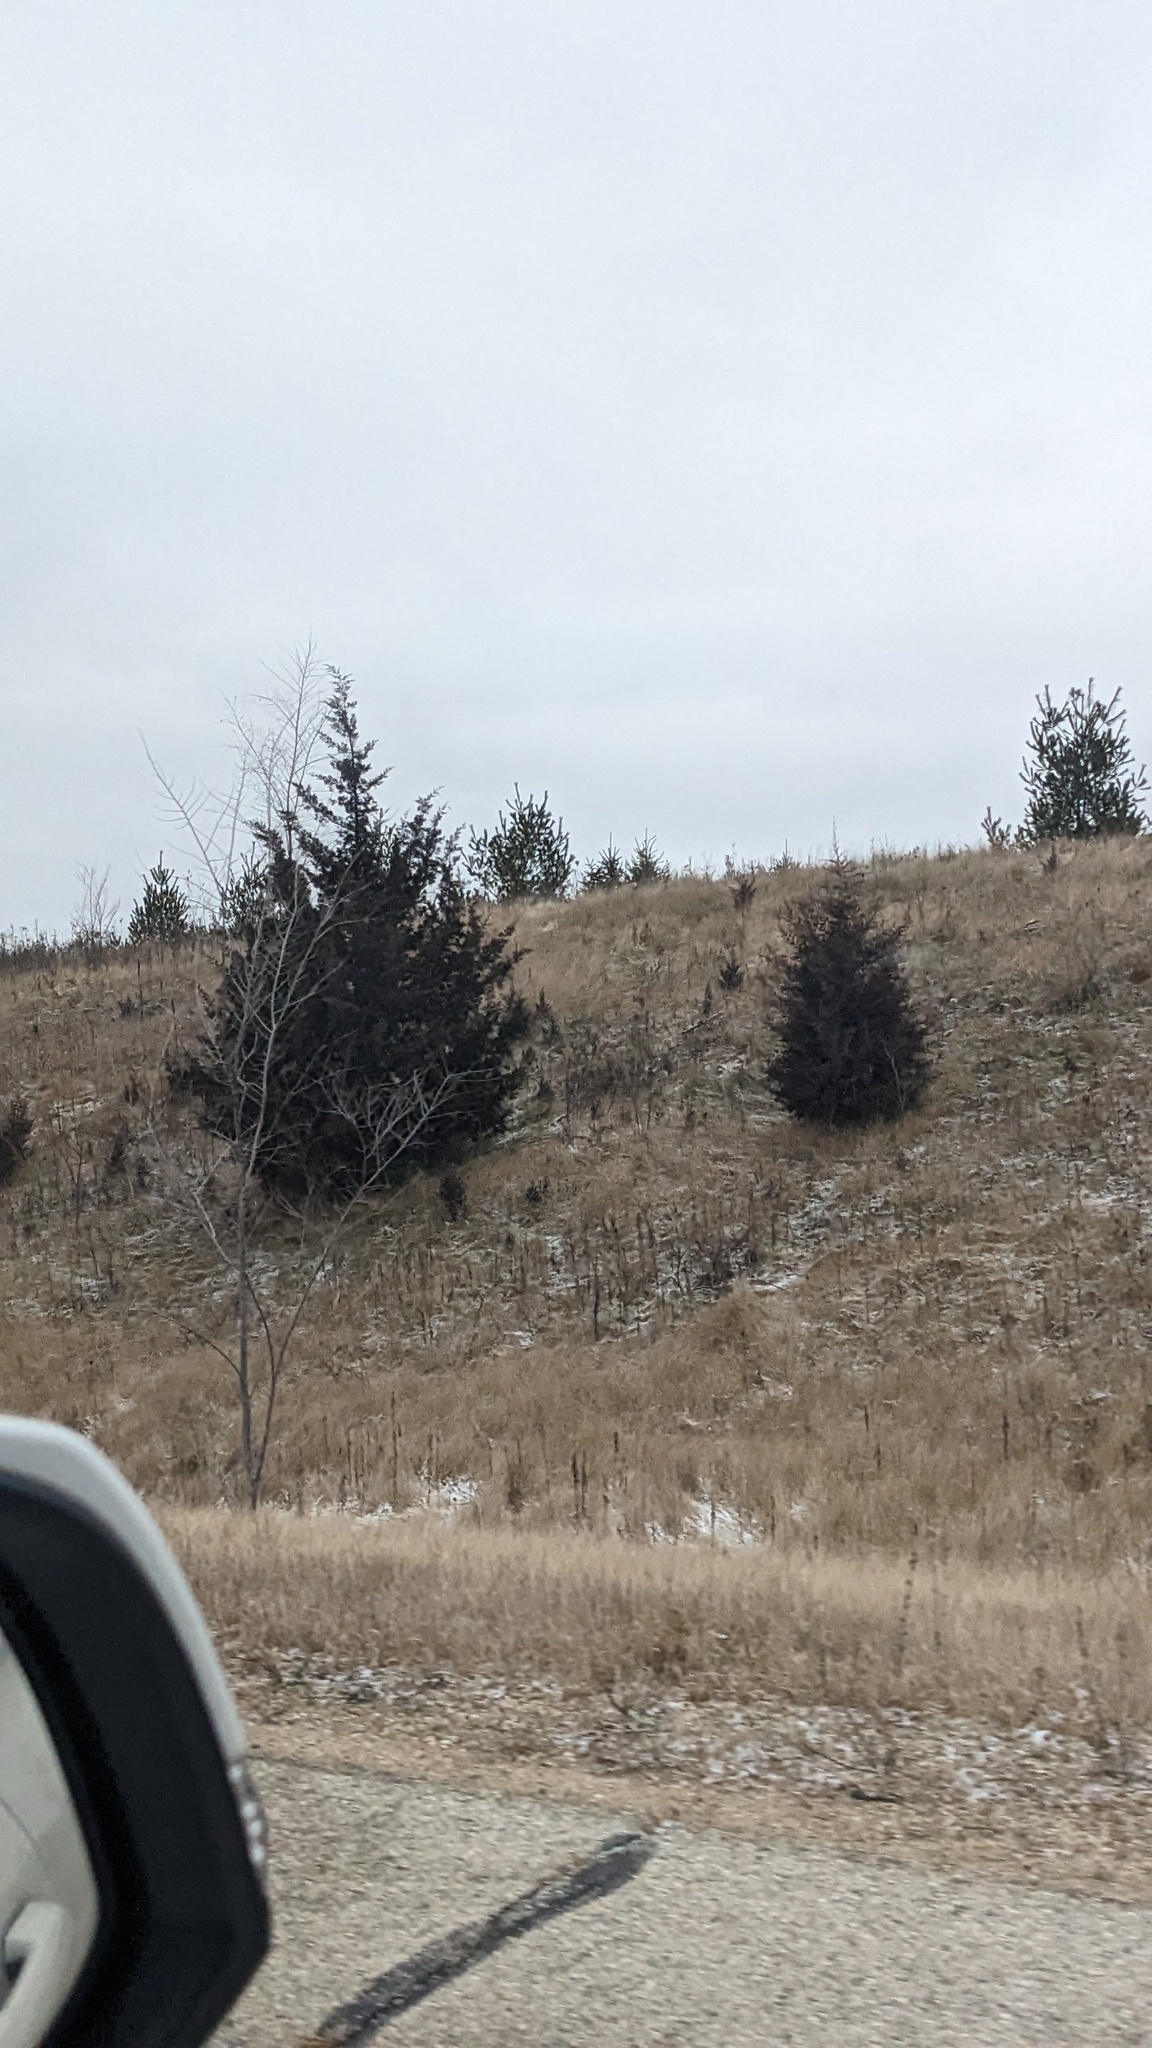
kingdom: Plantae
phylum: Tracheophyta
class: Pinopsida
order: Pinales
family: Cupressaceae
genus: Juniperus
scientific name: Juniperus virginiana
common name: Red juniper
